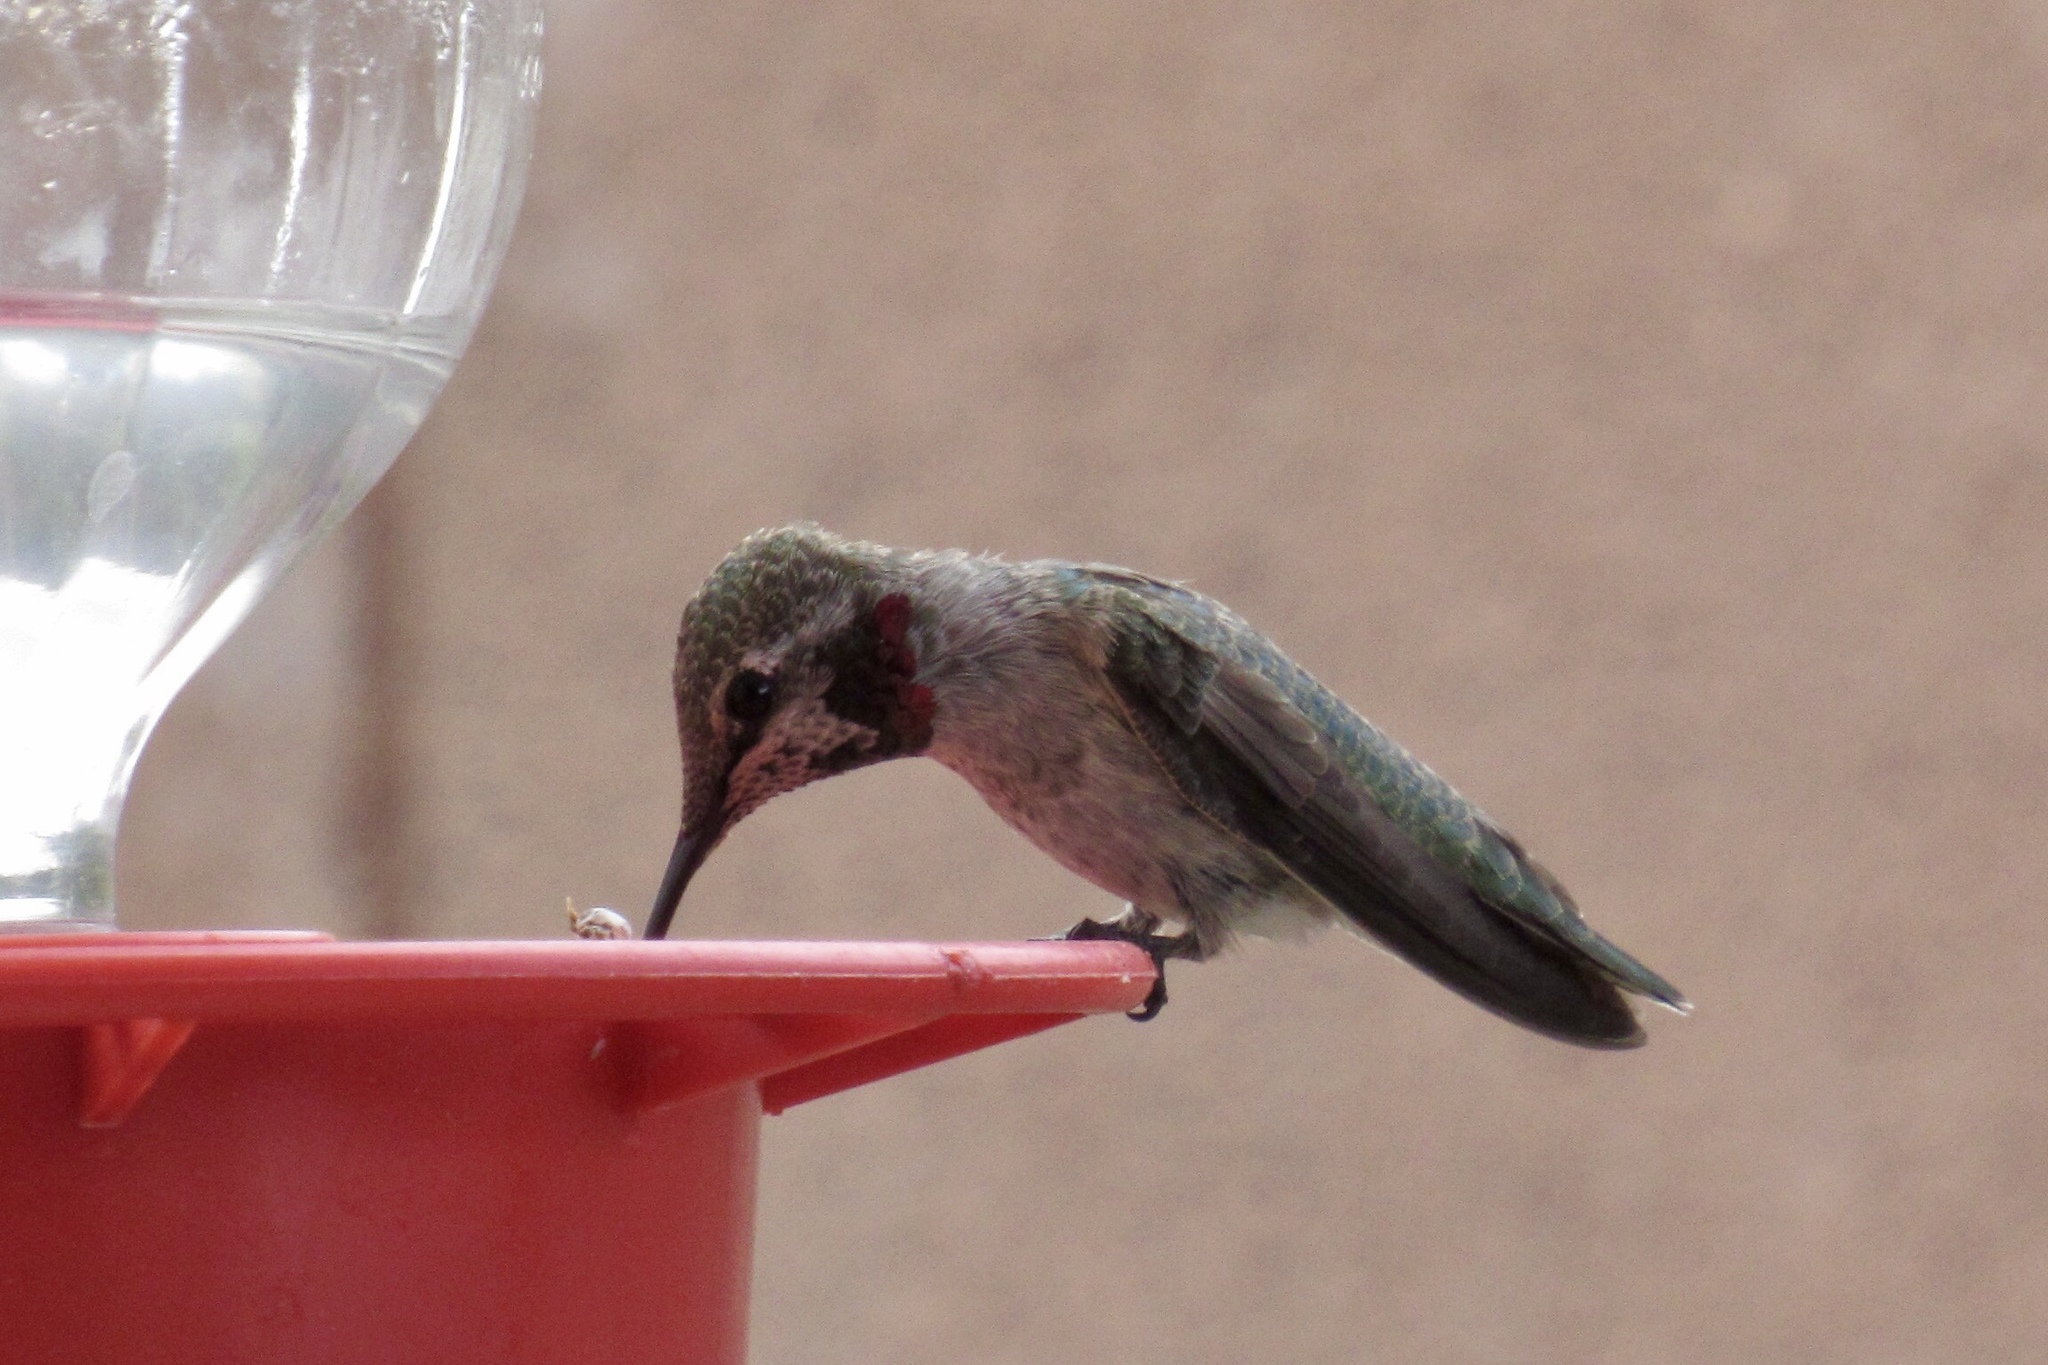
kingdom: Animalia
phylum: Chordata
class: Aves
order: Apodiformes
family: Trochilidae
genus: Calypte
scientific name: Calypte anna
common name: Anna's hummingbird
